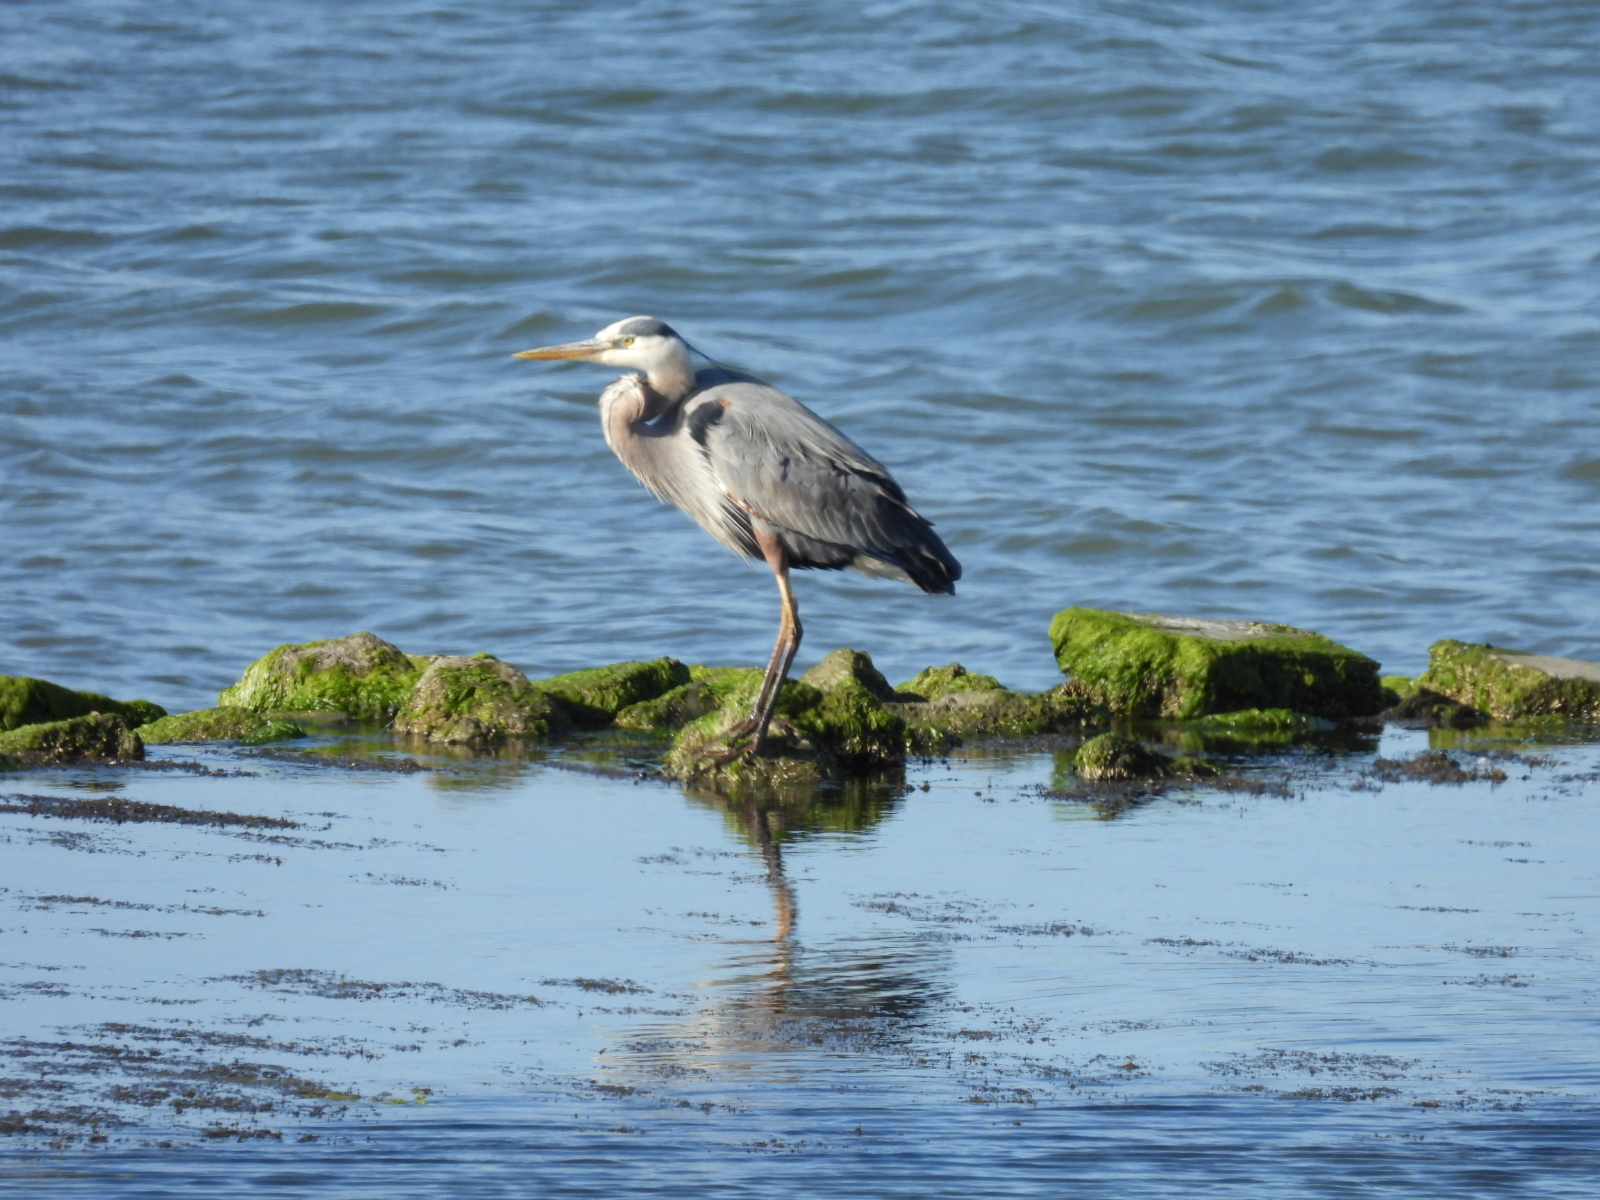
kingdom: Animalia
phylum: Chordata
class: Aves
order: Pelecaniformes
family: Ardeidae
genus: Ardea
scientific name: Ardea herodias
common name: Great blue heron
